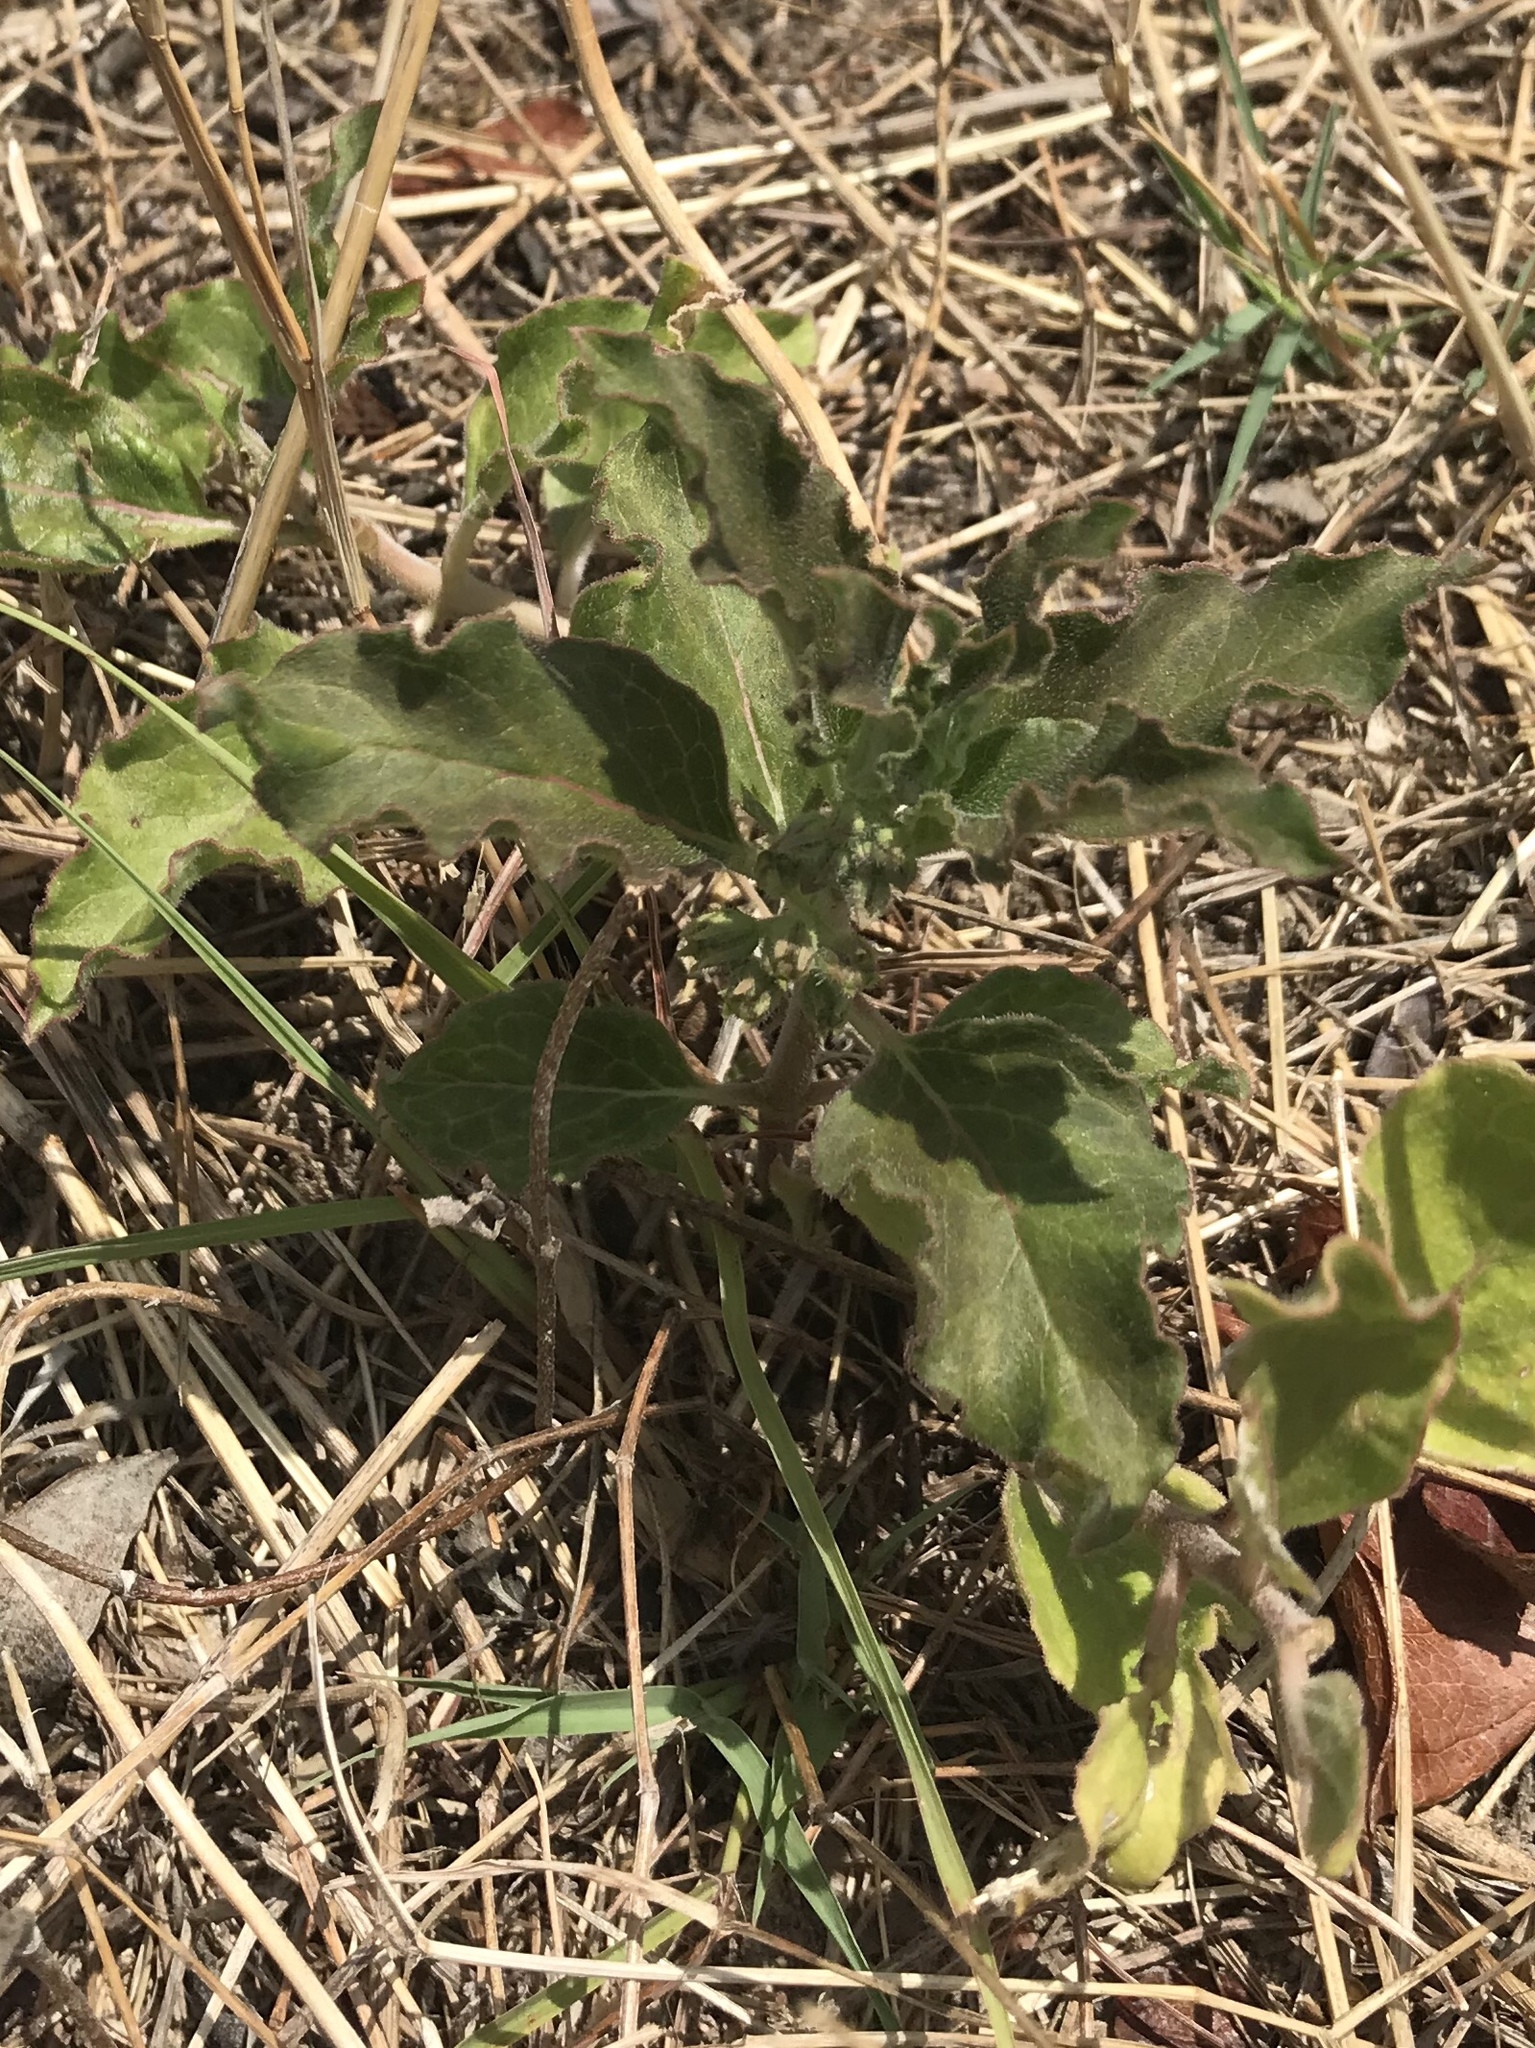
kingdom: Plantae
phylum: Tracheophyta
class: Magnoliopsida
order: Gentianales
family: Apocynaceae
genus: Asclepias
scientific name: Asclepias oenotheroides
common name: Zizotes milkweed
